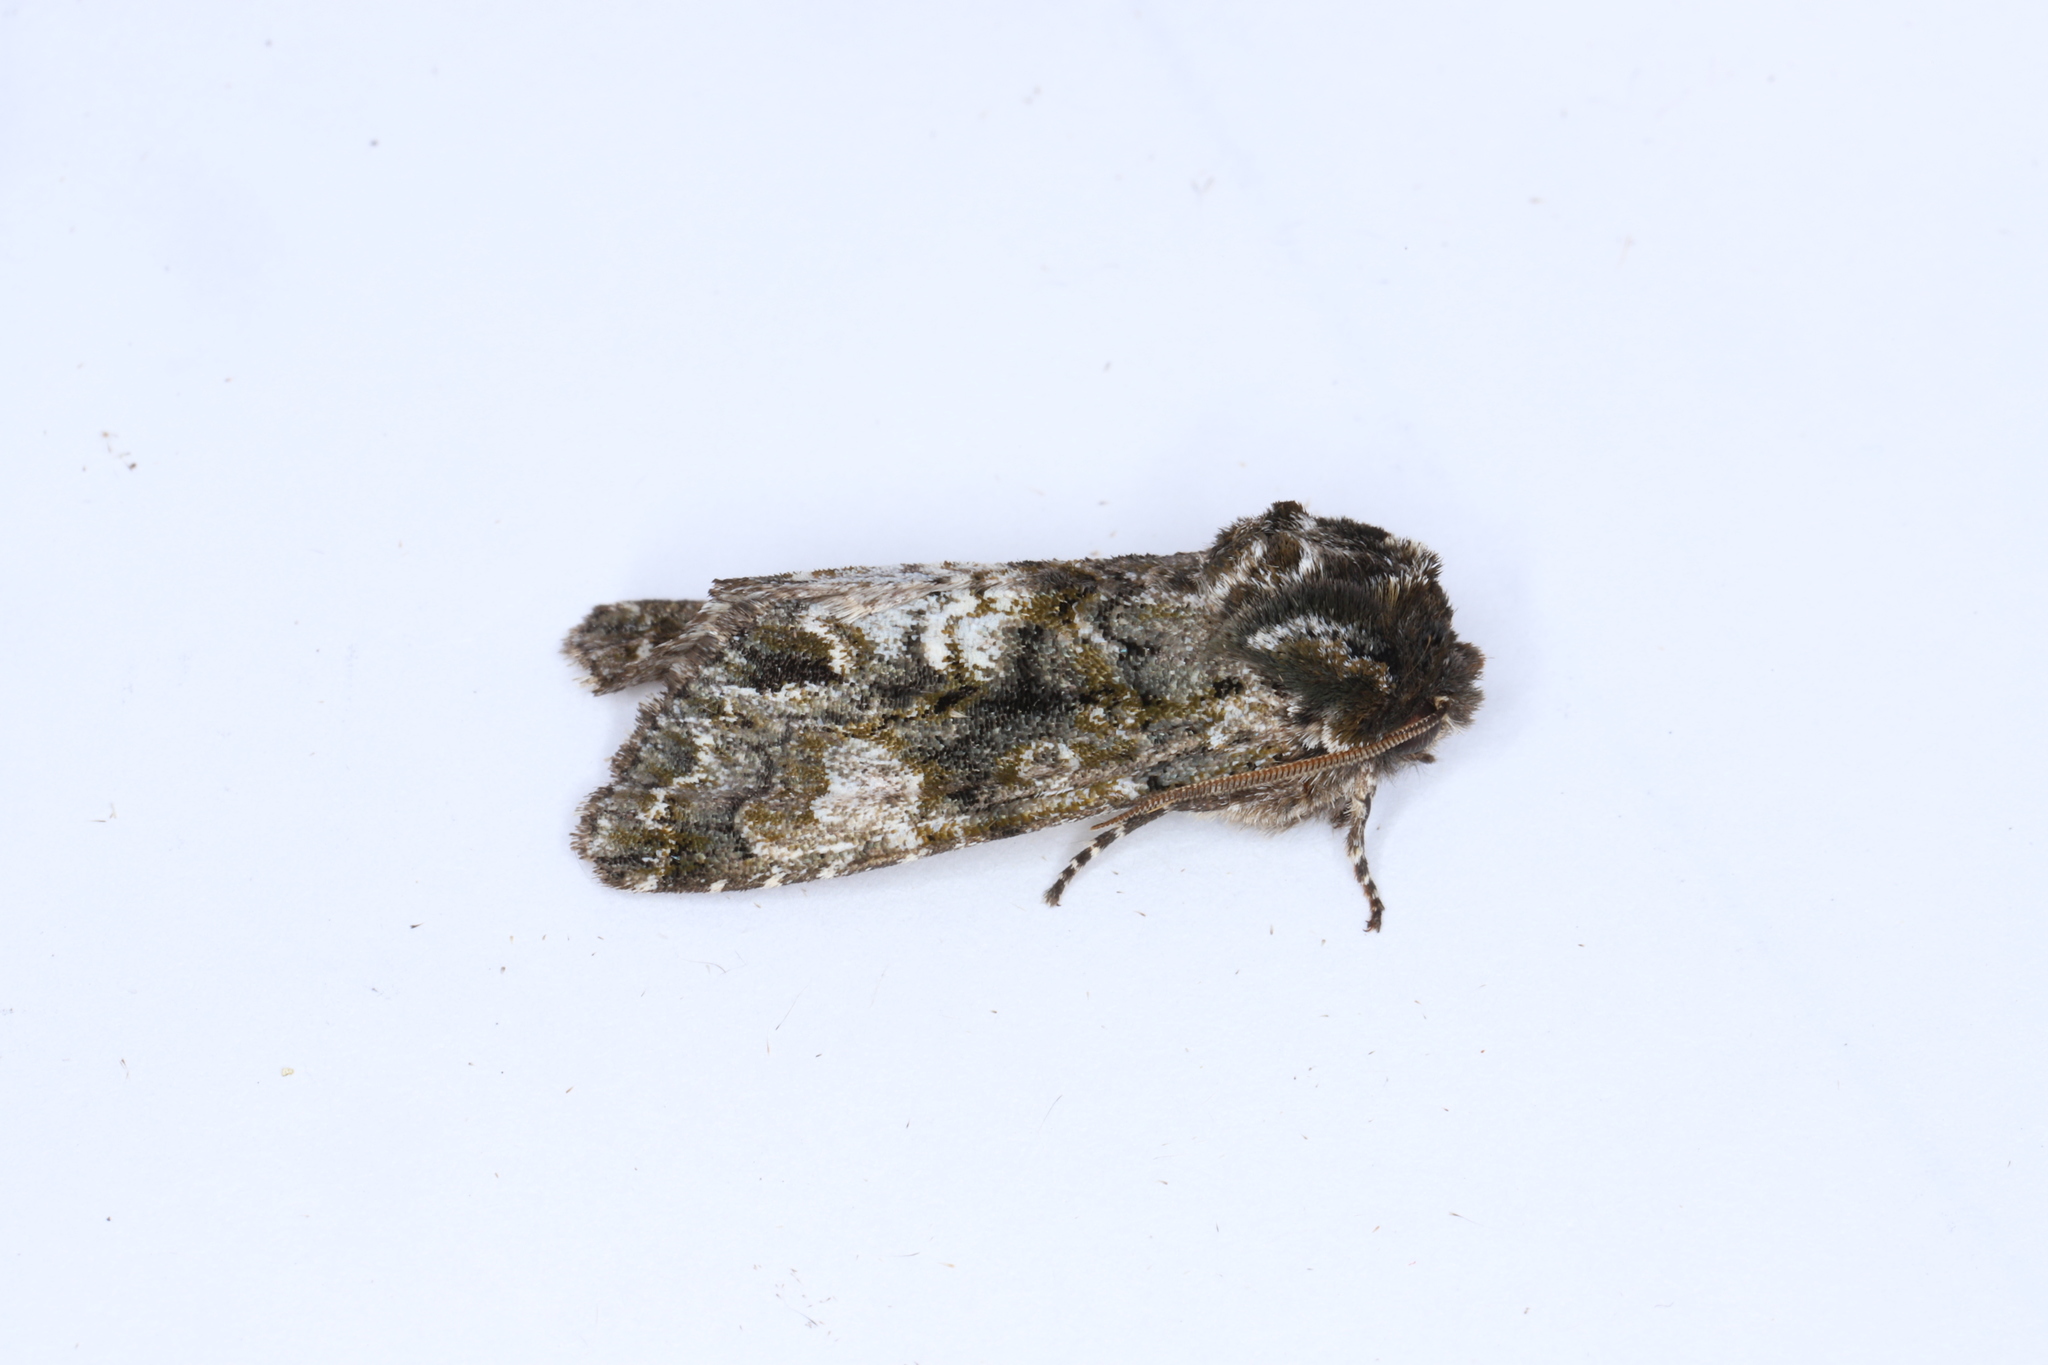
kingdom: Animalia
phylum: Arthropoda
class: Insecta
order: Lepidoptera
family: Noctuidae
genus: Psaphida
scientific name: Psaphida grotei
